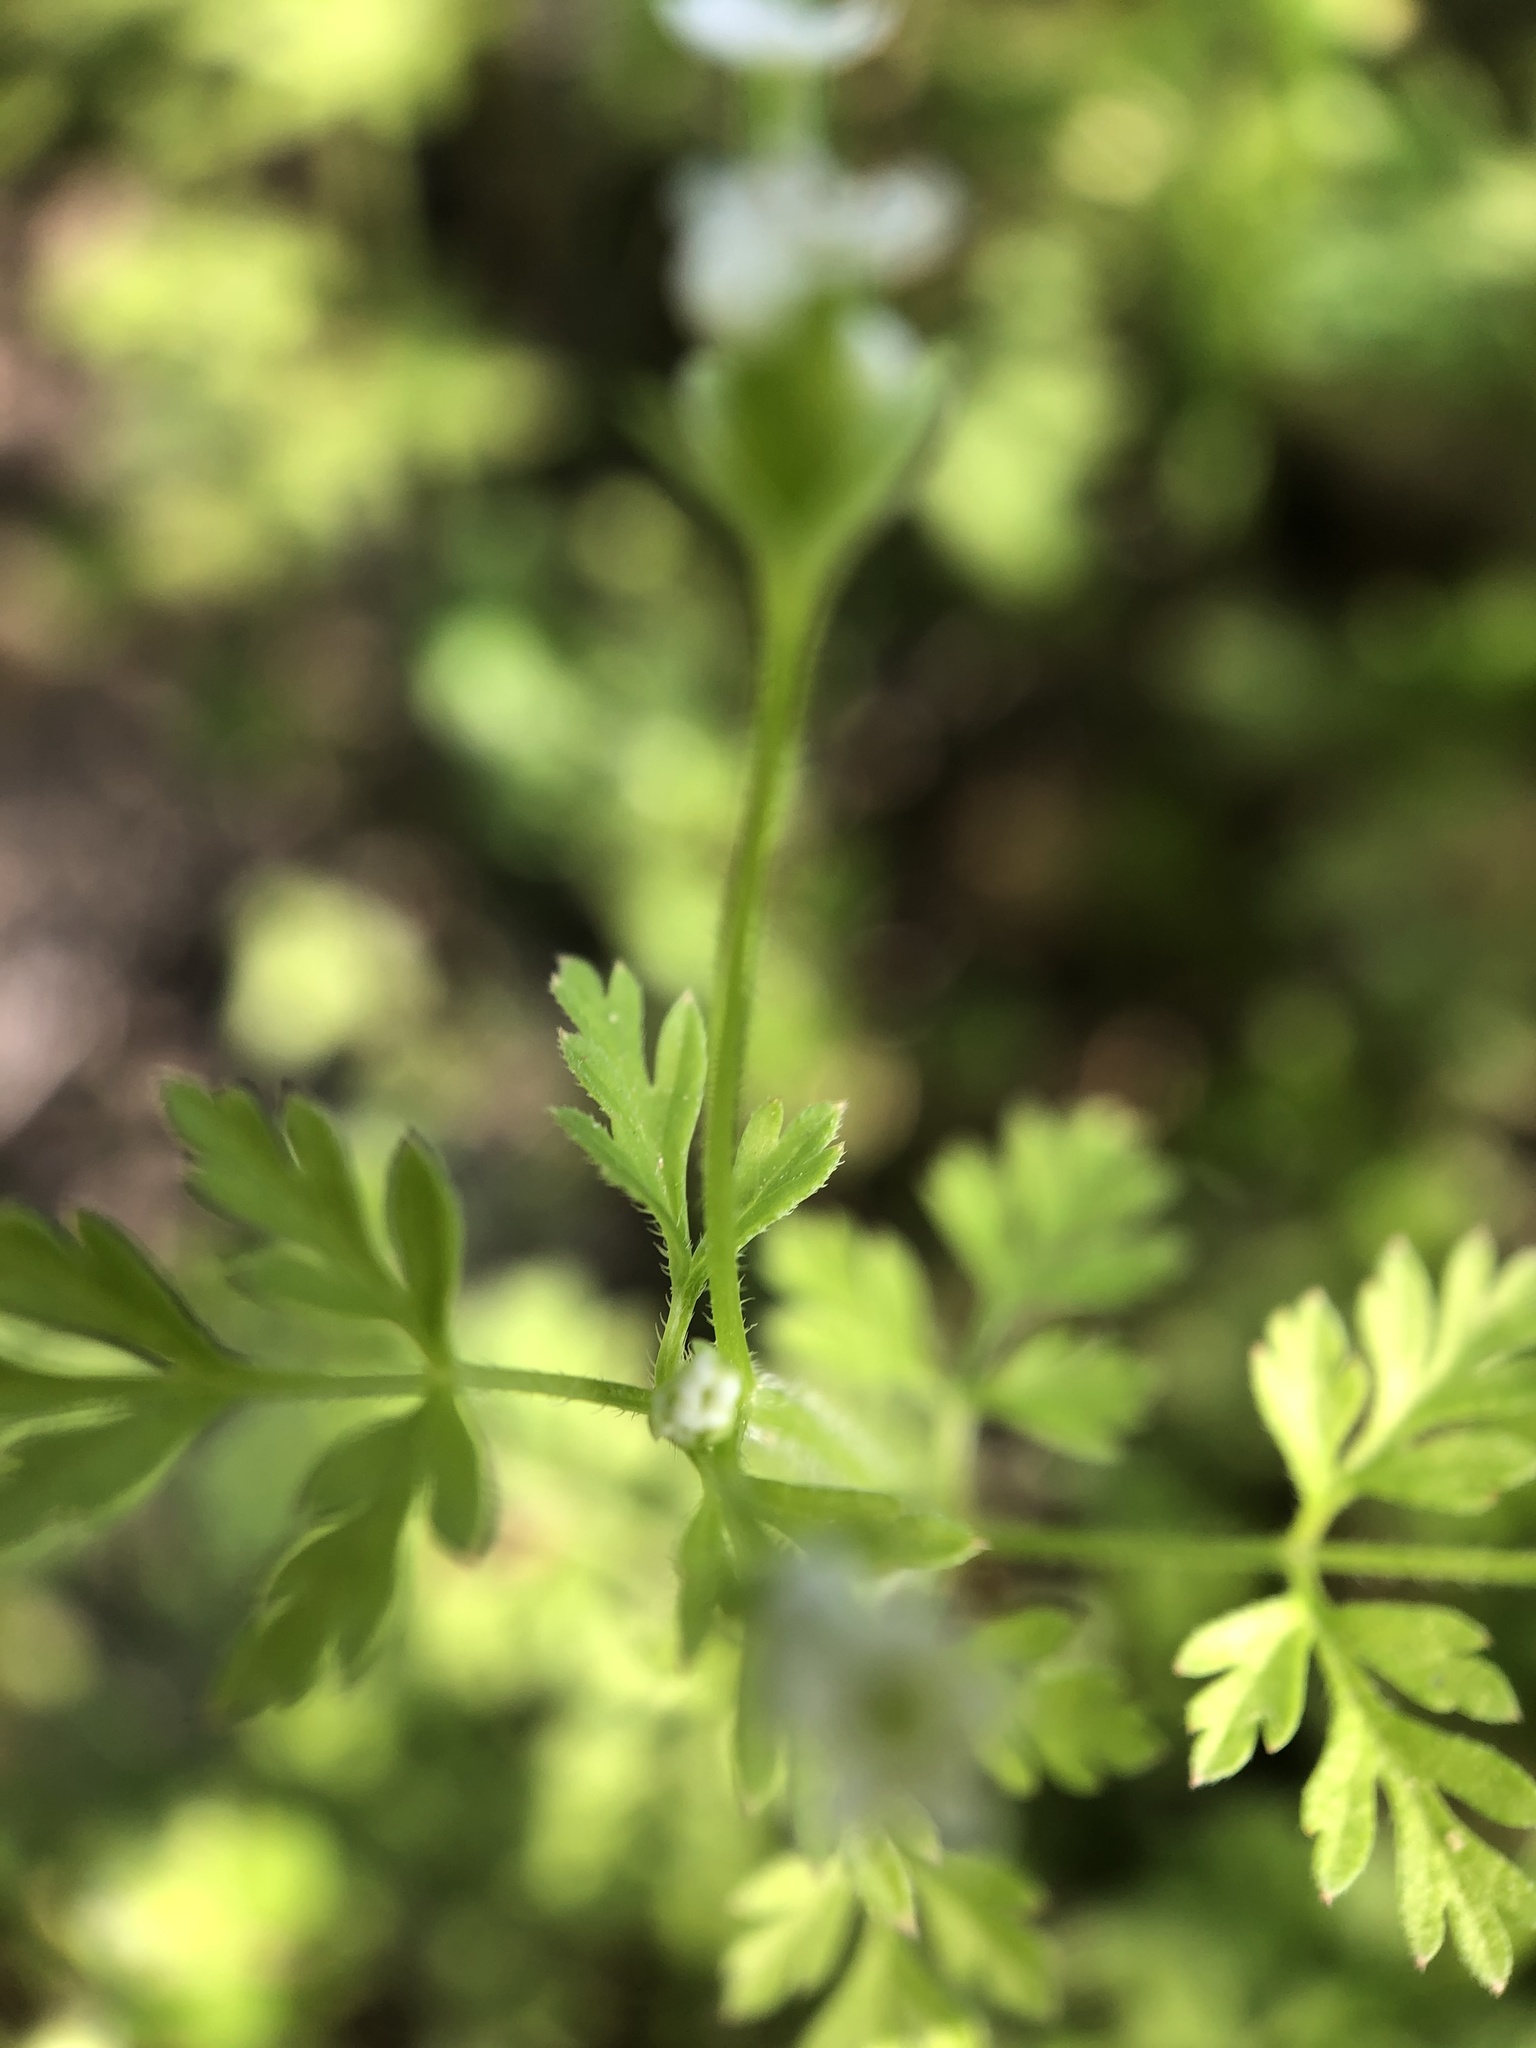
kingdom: Plantae
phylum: Tracheophyta
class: Magnoliopsida
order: Apiales
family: Apiaceae
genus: Chaerophyllum
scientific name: Chaerophyllum tainturieri
